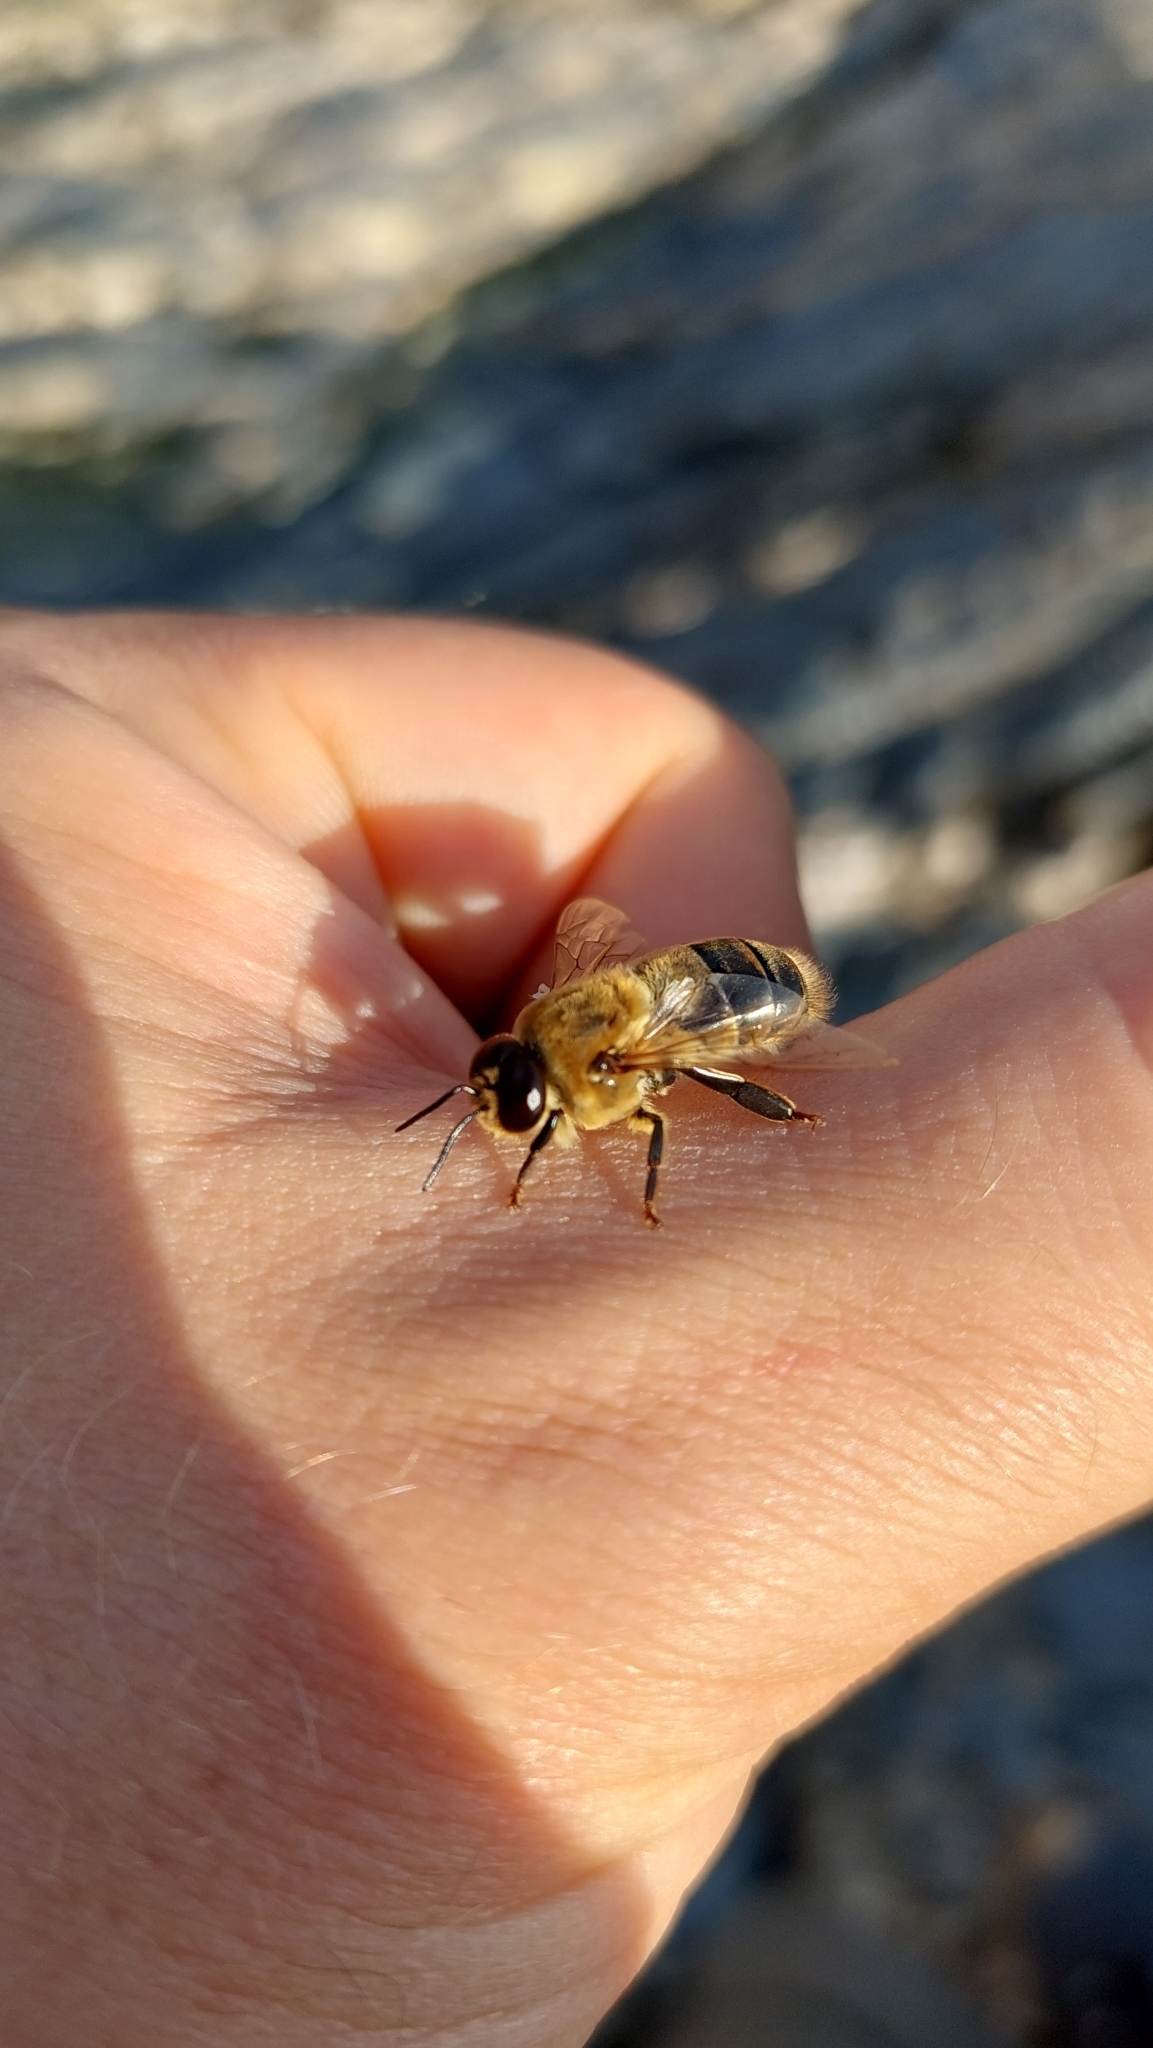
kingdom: Animalia
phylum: Arthropoda
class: Insecta
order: Hymenoptera
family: Apidae
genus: Apis
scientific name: Apis mellifera
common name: Honey bee
